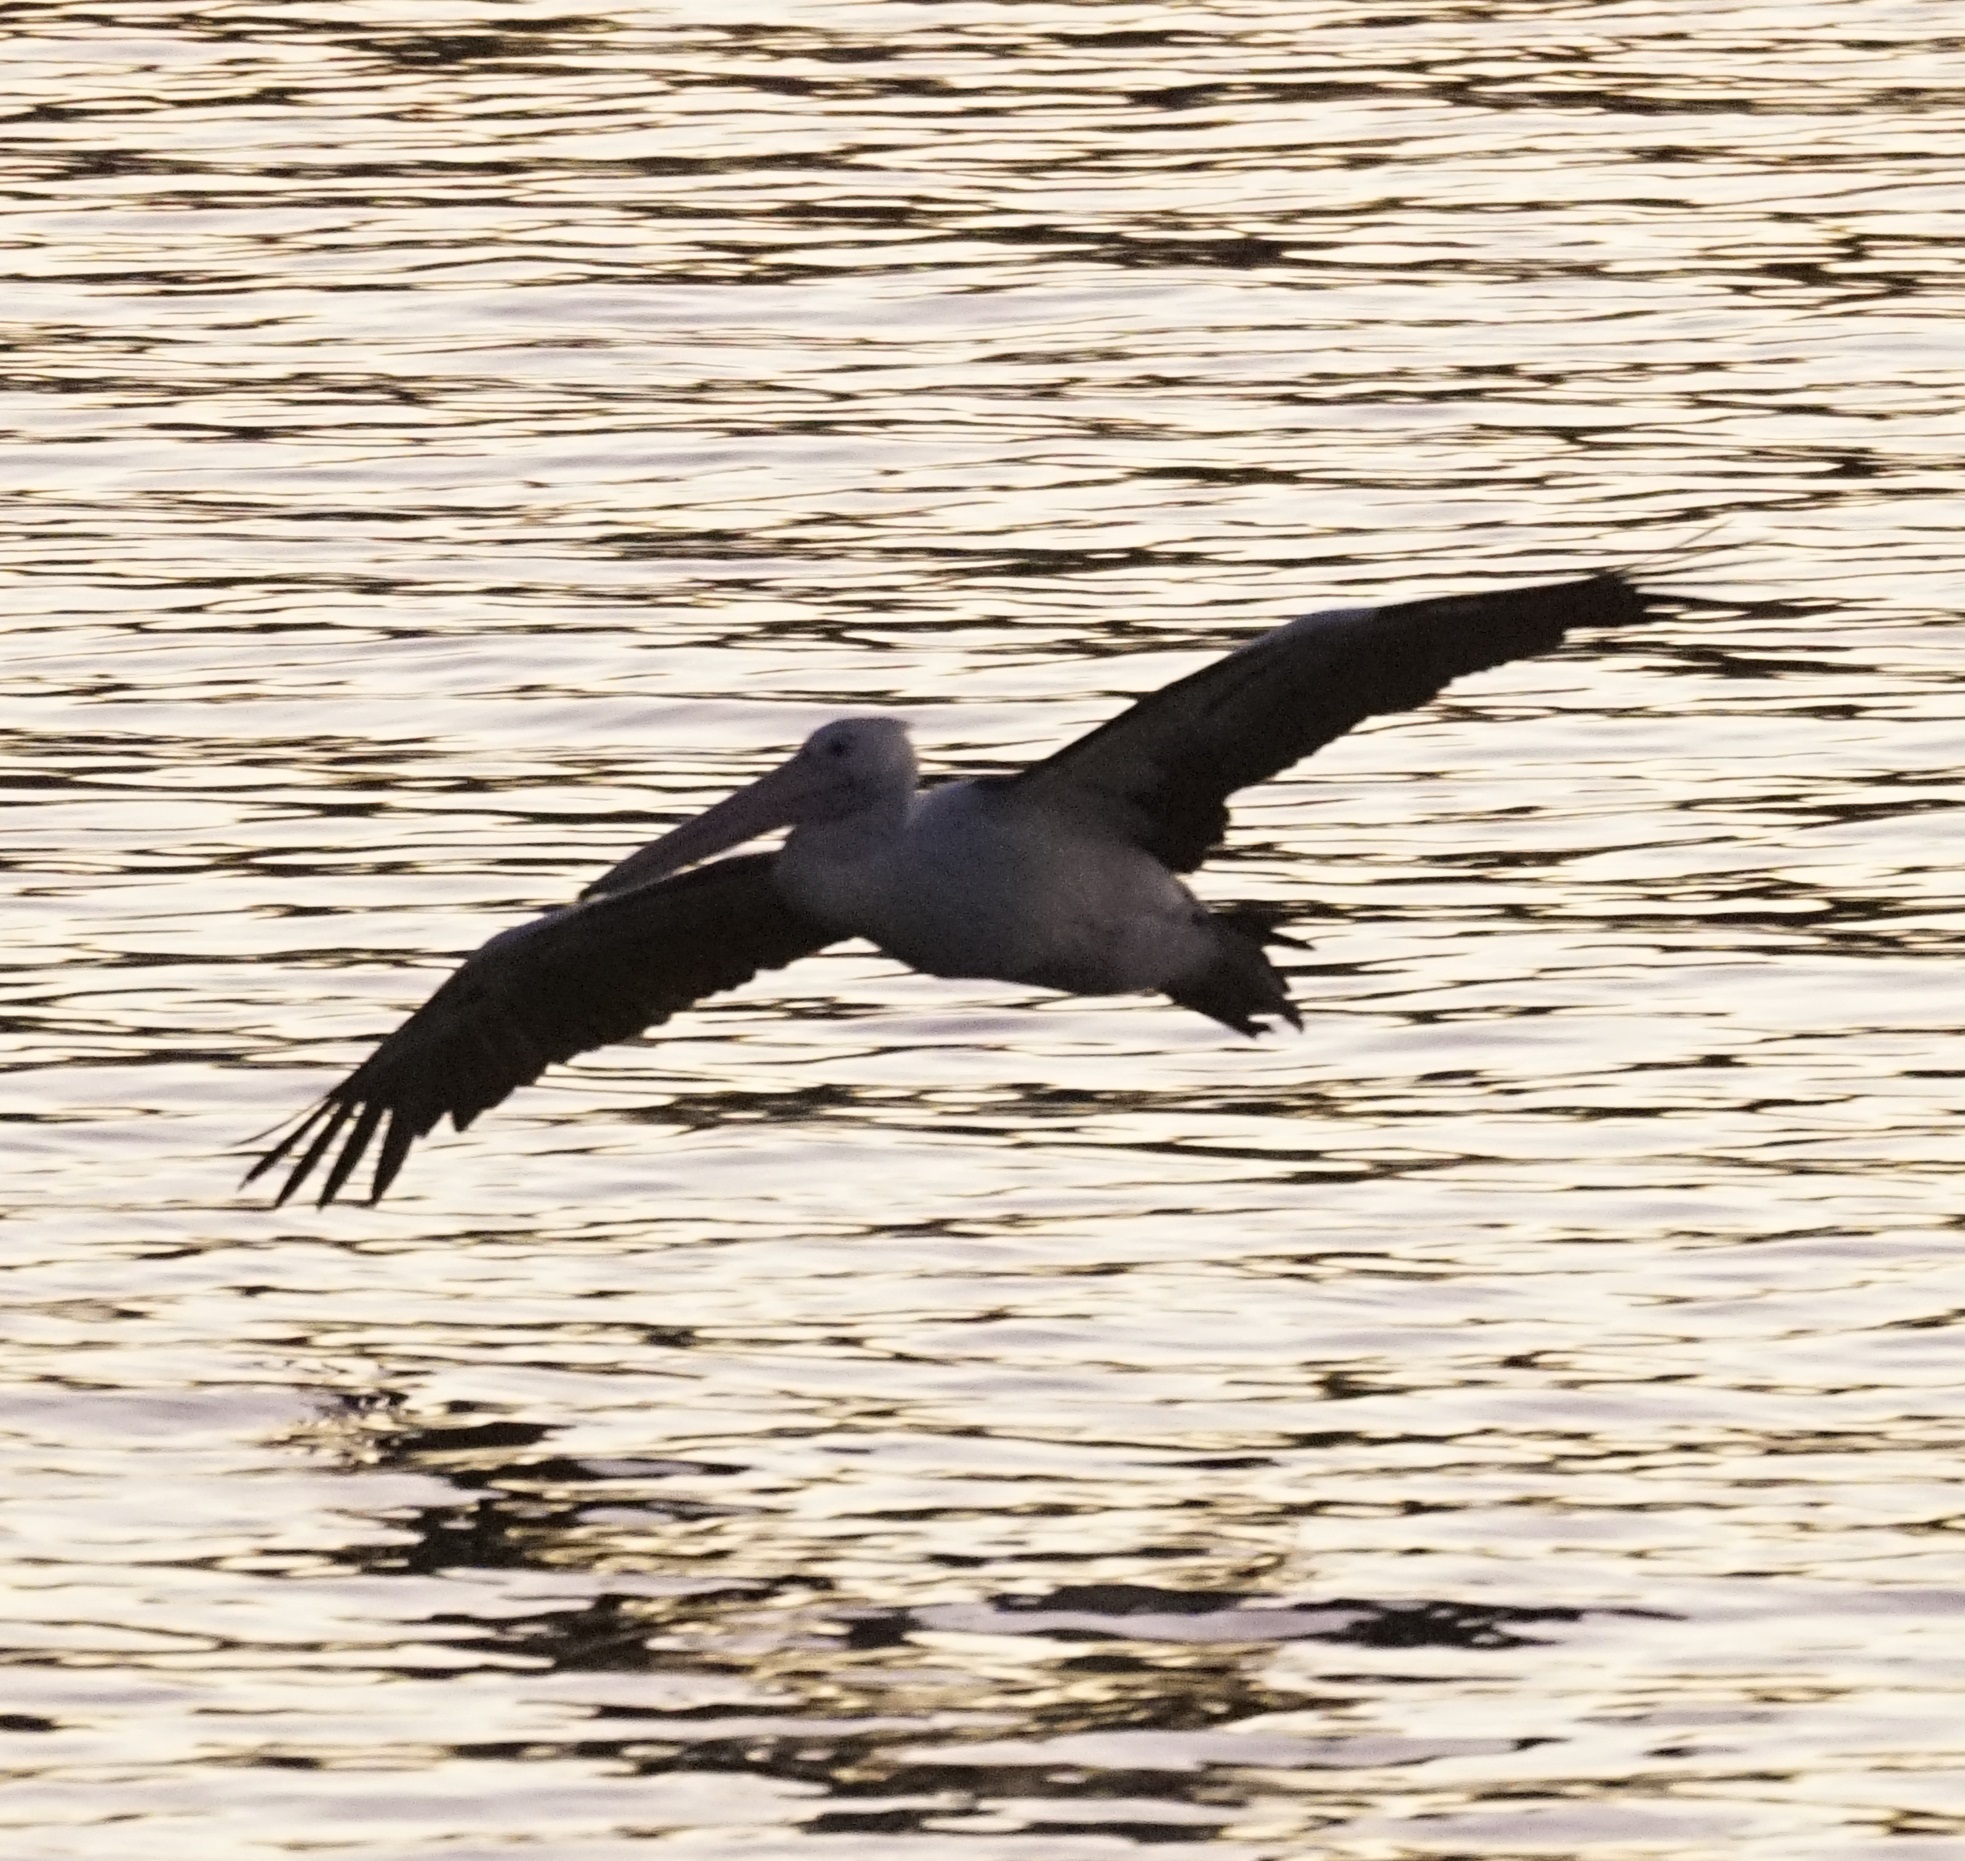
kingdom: Animalia
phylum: Chordata
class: Aves
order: Pelecaniformes
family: Pelecanidae
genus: Pelecanus
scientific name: Pelecanus conspicillatus
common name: Australian pelican
